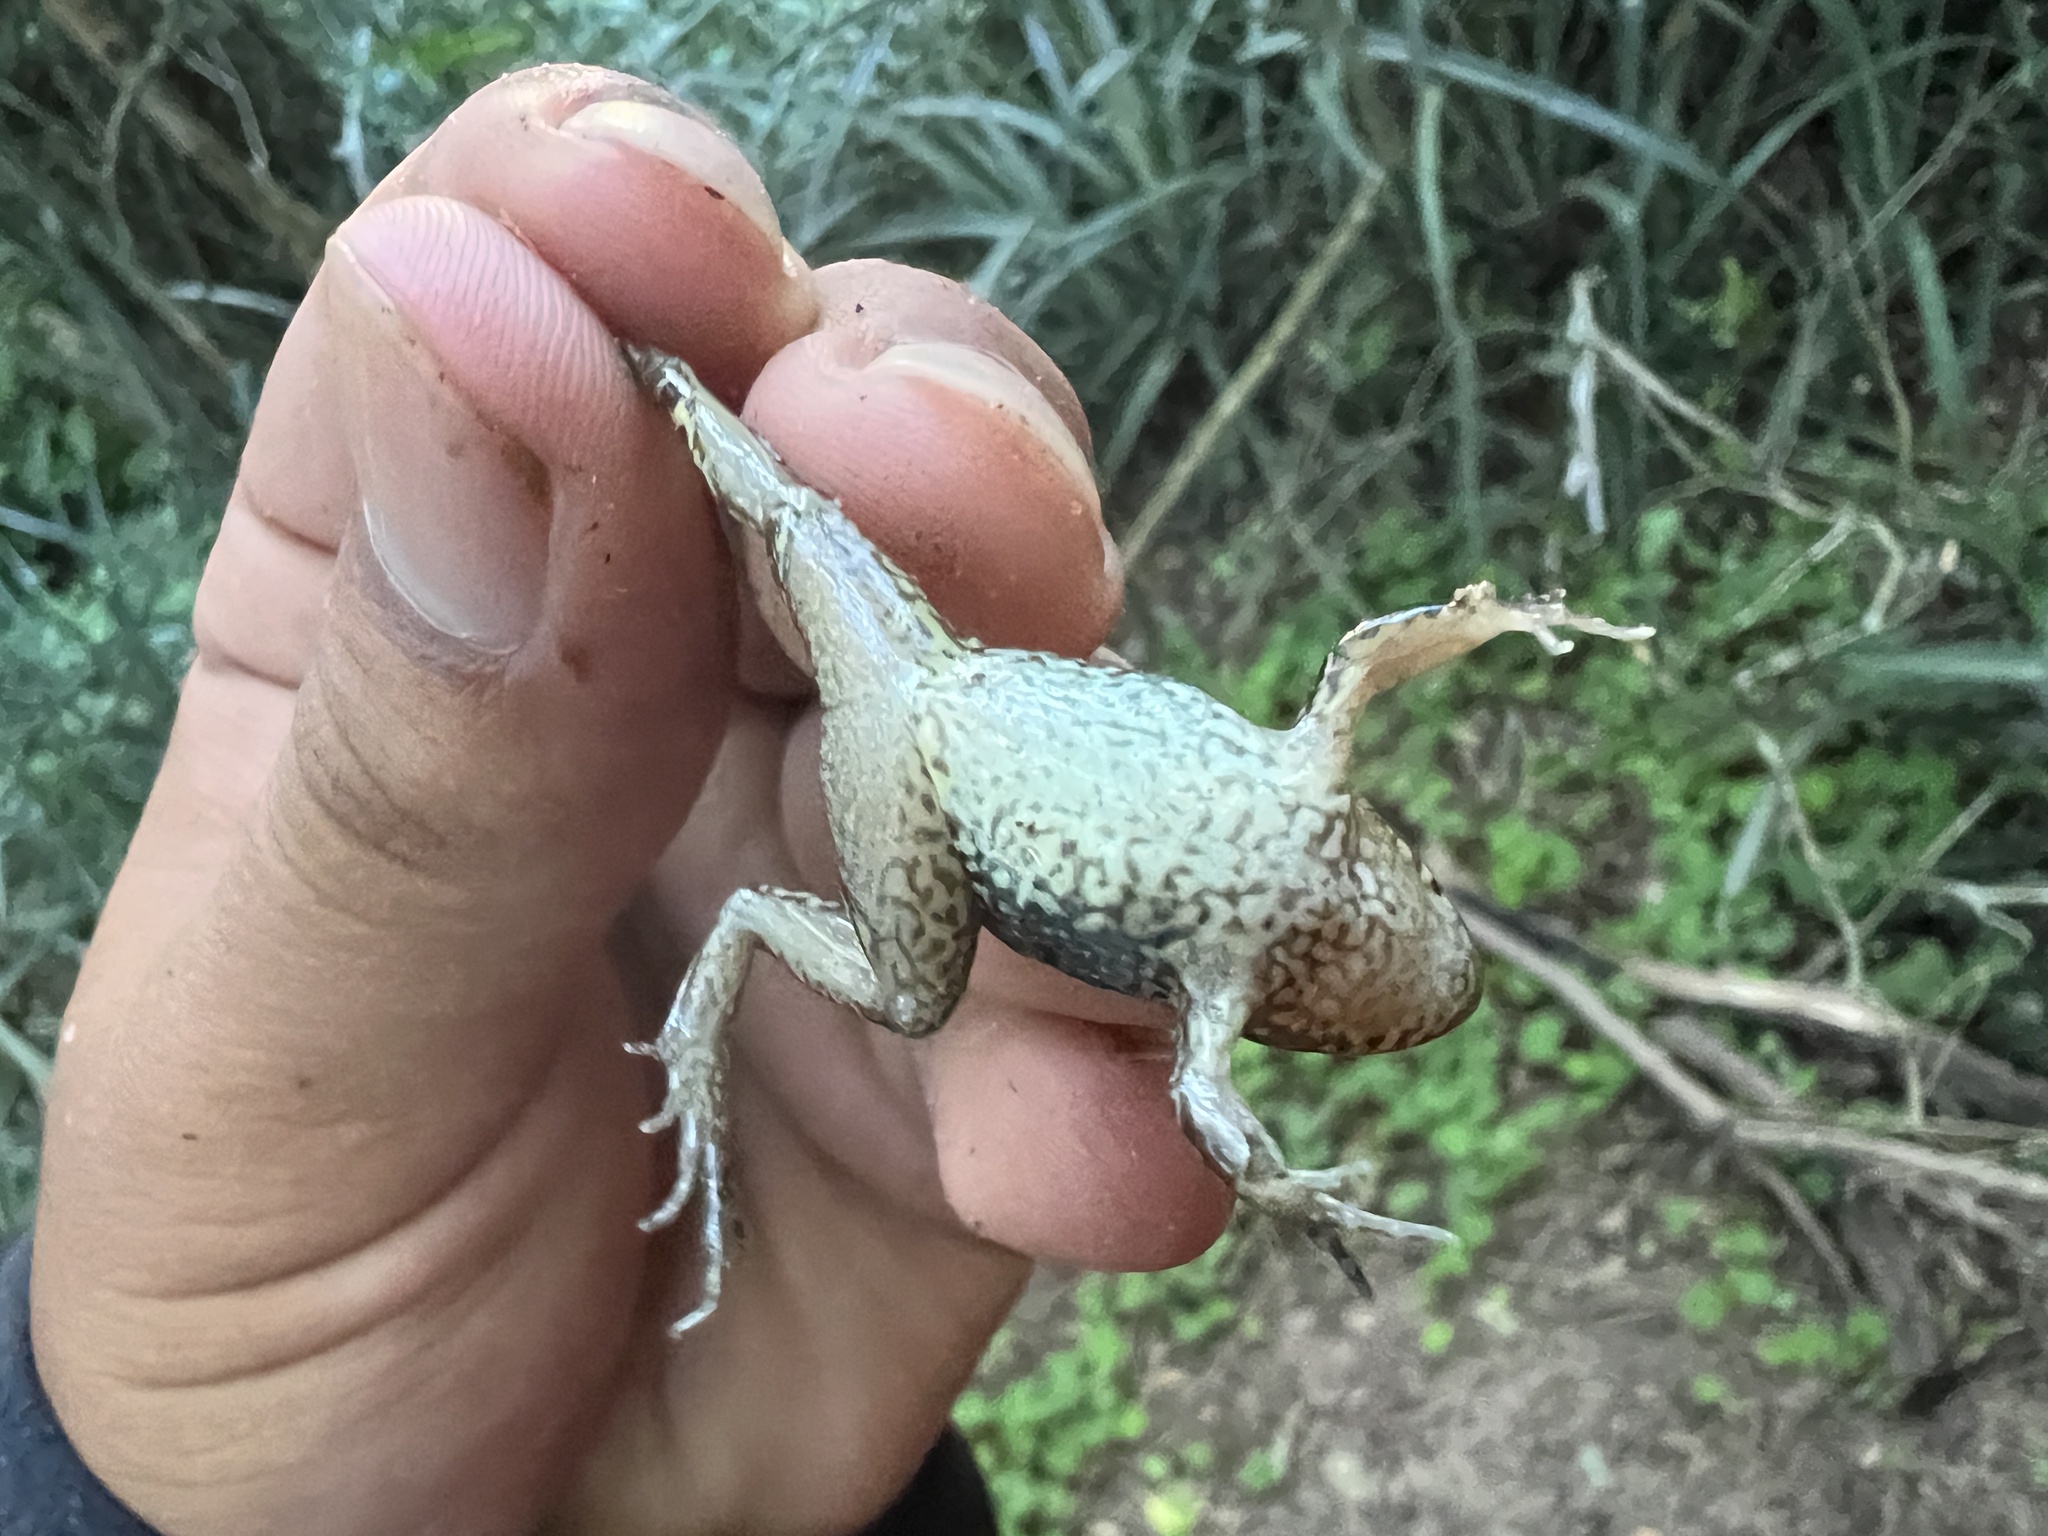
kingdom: Animalia
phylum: Chordata
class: Amphibia
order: Anura
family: Leptodactylidae
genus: Leptodactylus
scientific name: Leptodactylus macrosternum
